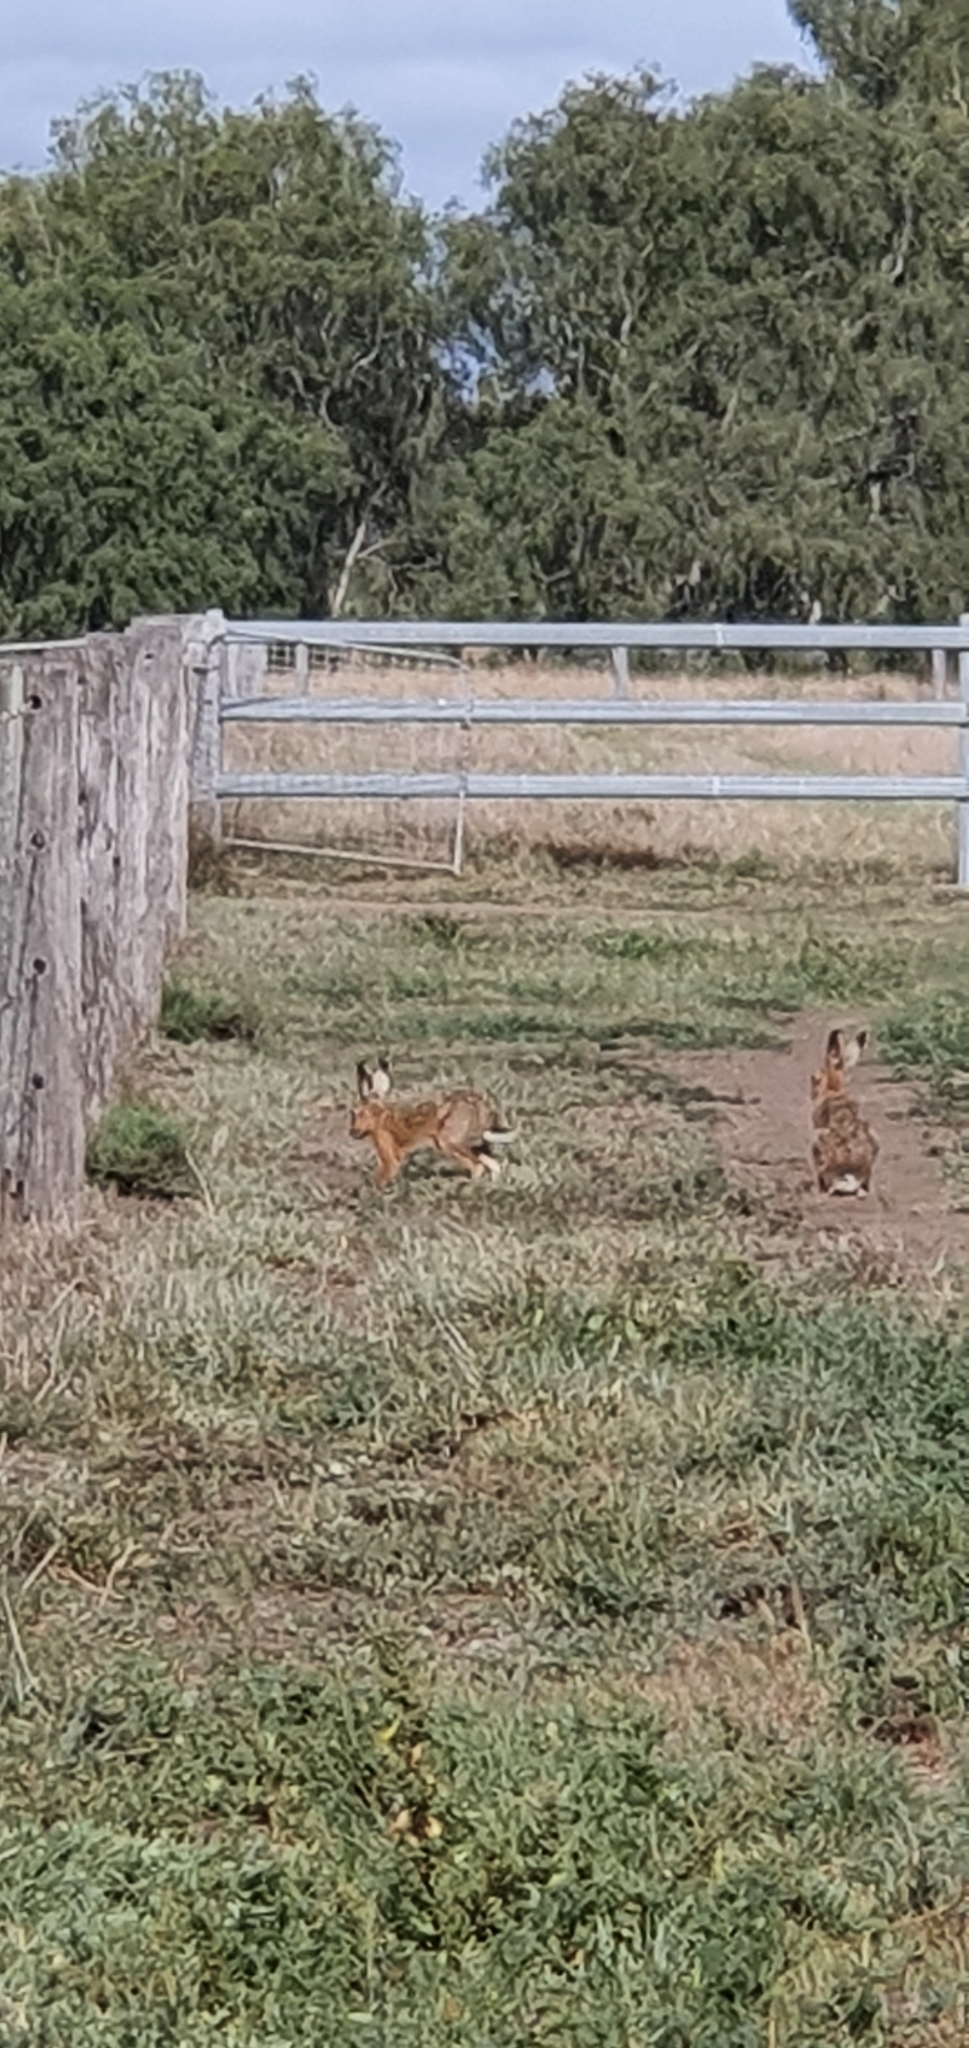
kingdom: Animalia
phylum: Chordata
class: Mammalia
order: Lagomorpha
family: Leporidae
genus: Lepus
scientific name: Lepus europaeus
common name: European hare
